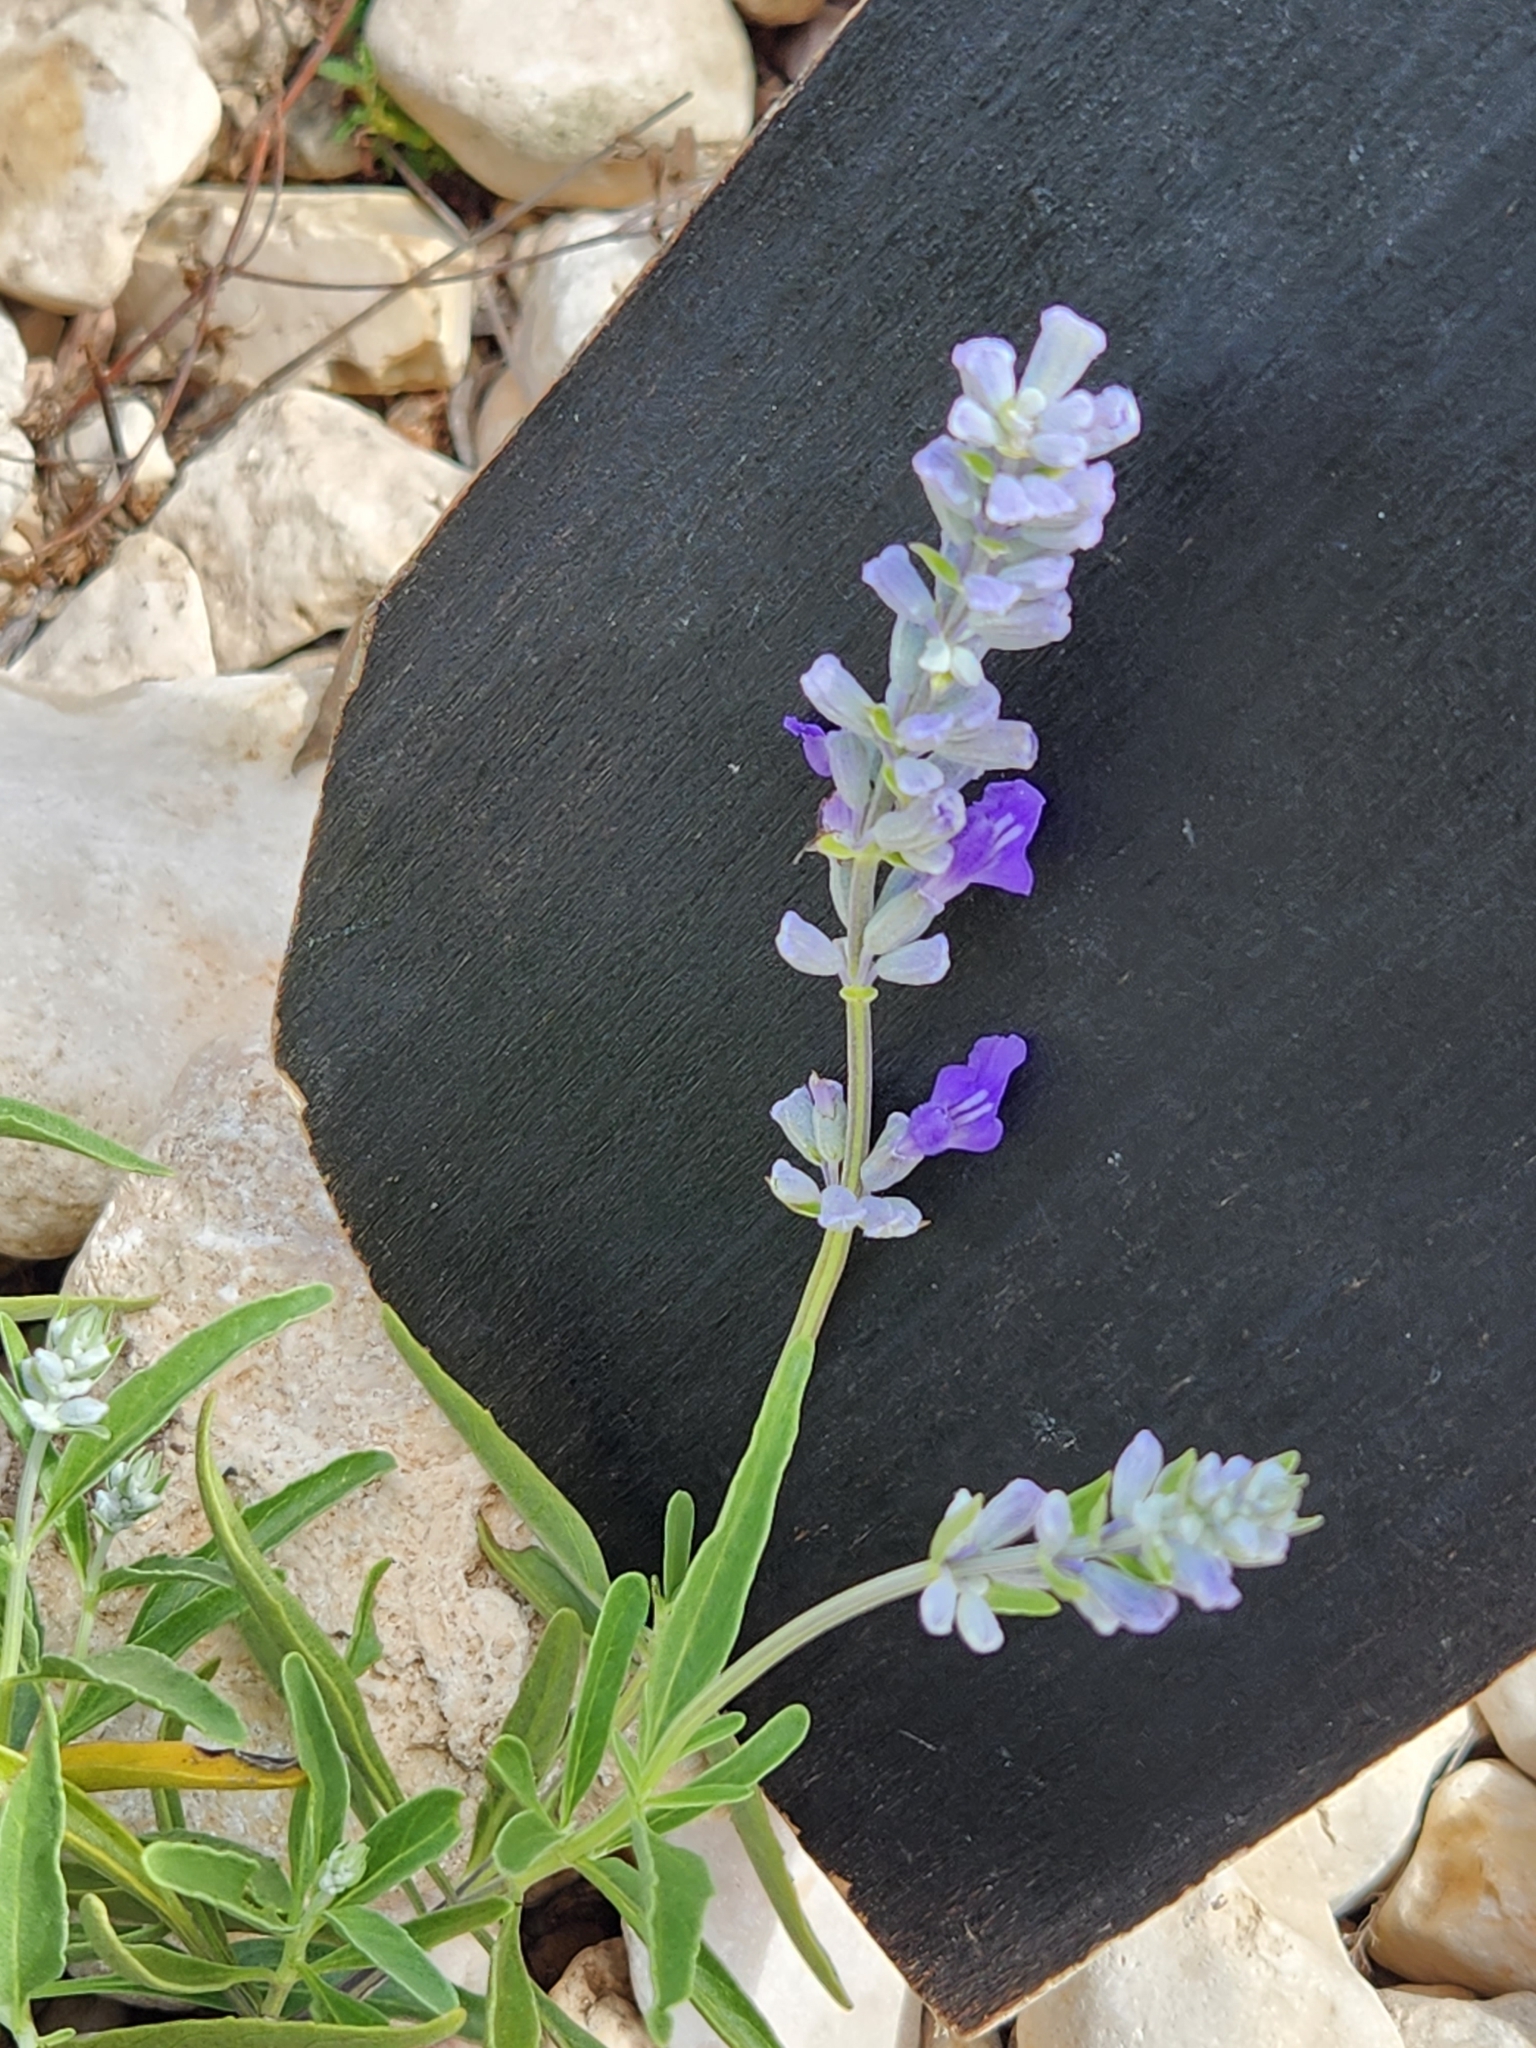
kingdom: Plantae
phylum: Tracheophyta
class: Magnoliopsida
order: Lamiales
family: Lamiaceae
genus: Salvia
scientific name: Salvia farinacea
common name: Mealy sage
